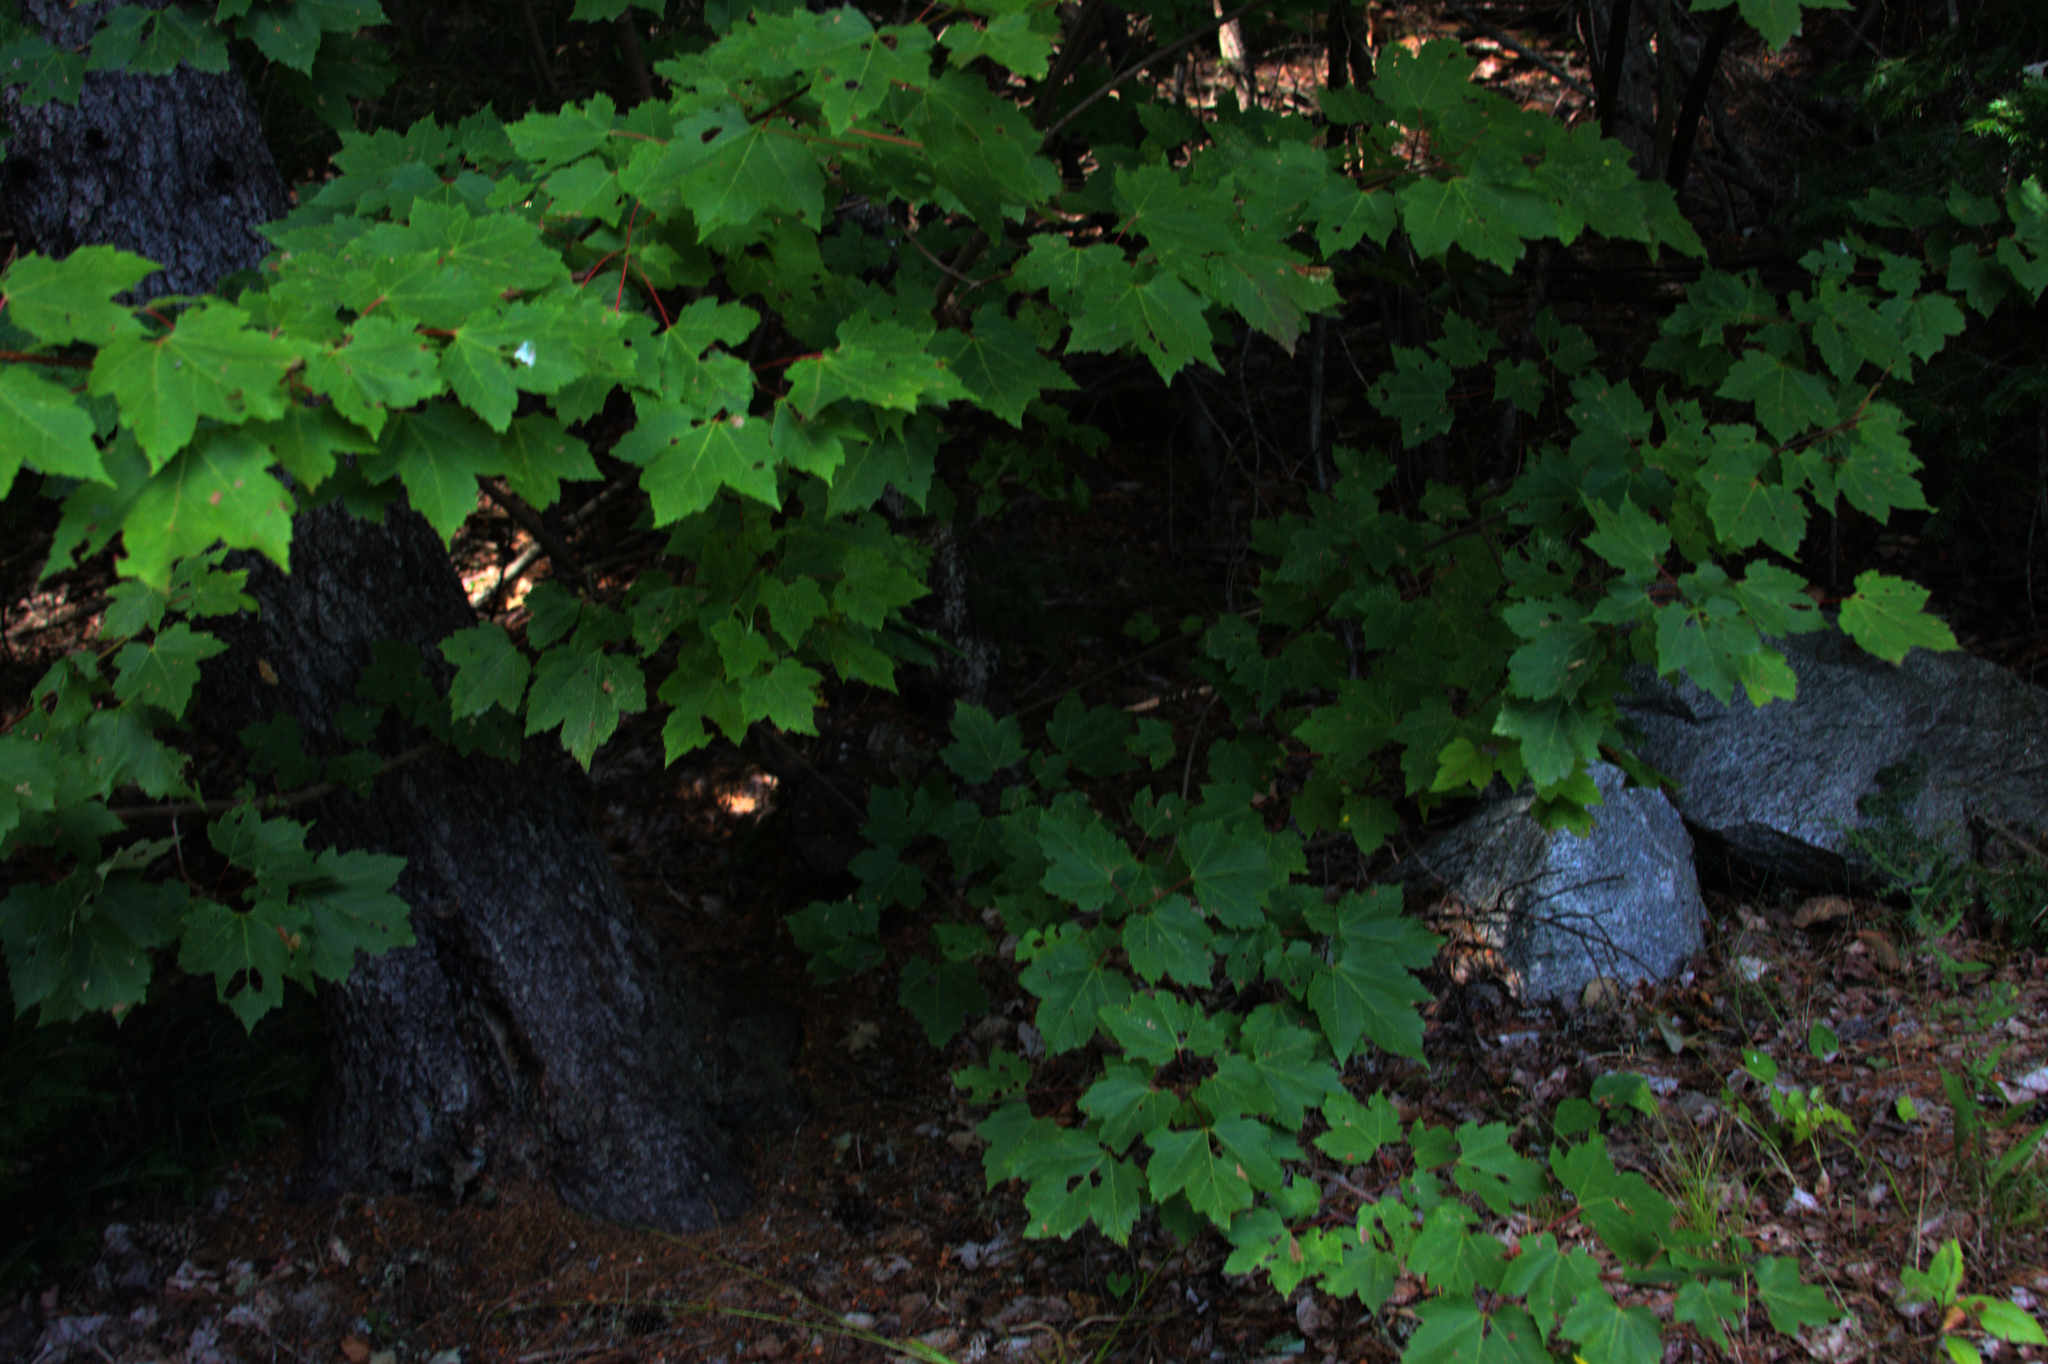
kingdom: Plantae
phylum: Tracheophyta
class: Magnoliopsida
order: Sapindales
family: Sapindaceae
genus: Acer
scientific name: Acer rubrum
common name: Red maple
